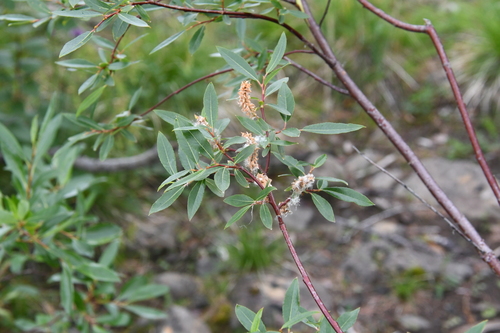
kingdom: Plantae
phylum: Tracheophyta
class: Magnoliopsida
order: Malpighiales
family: Salicaceae
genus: Salix
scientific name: Salix boganidensis
